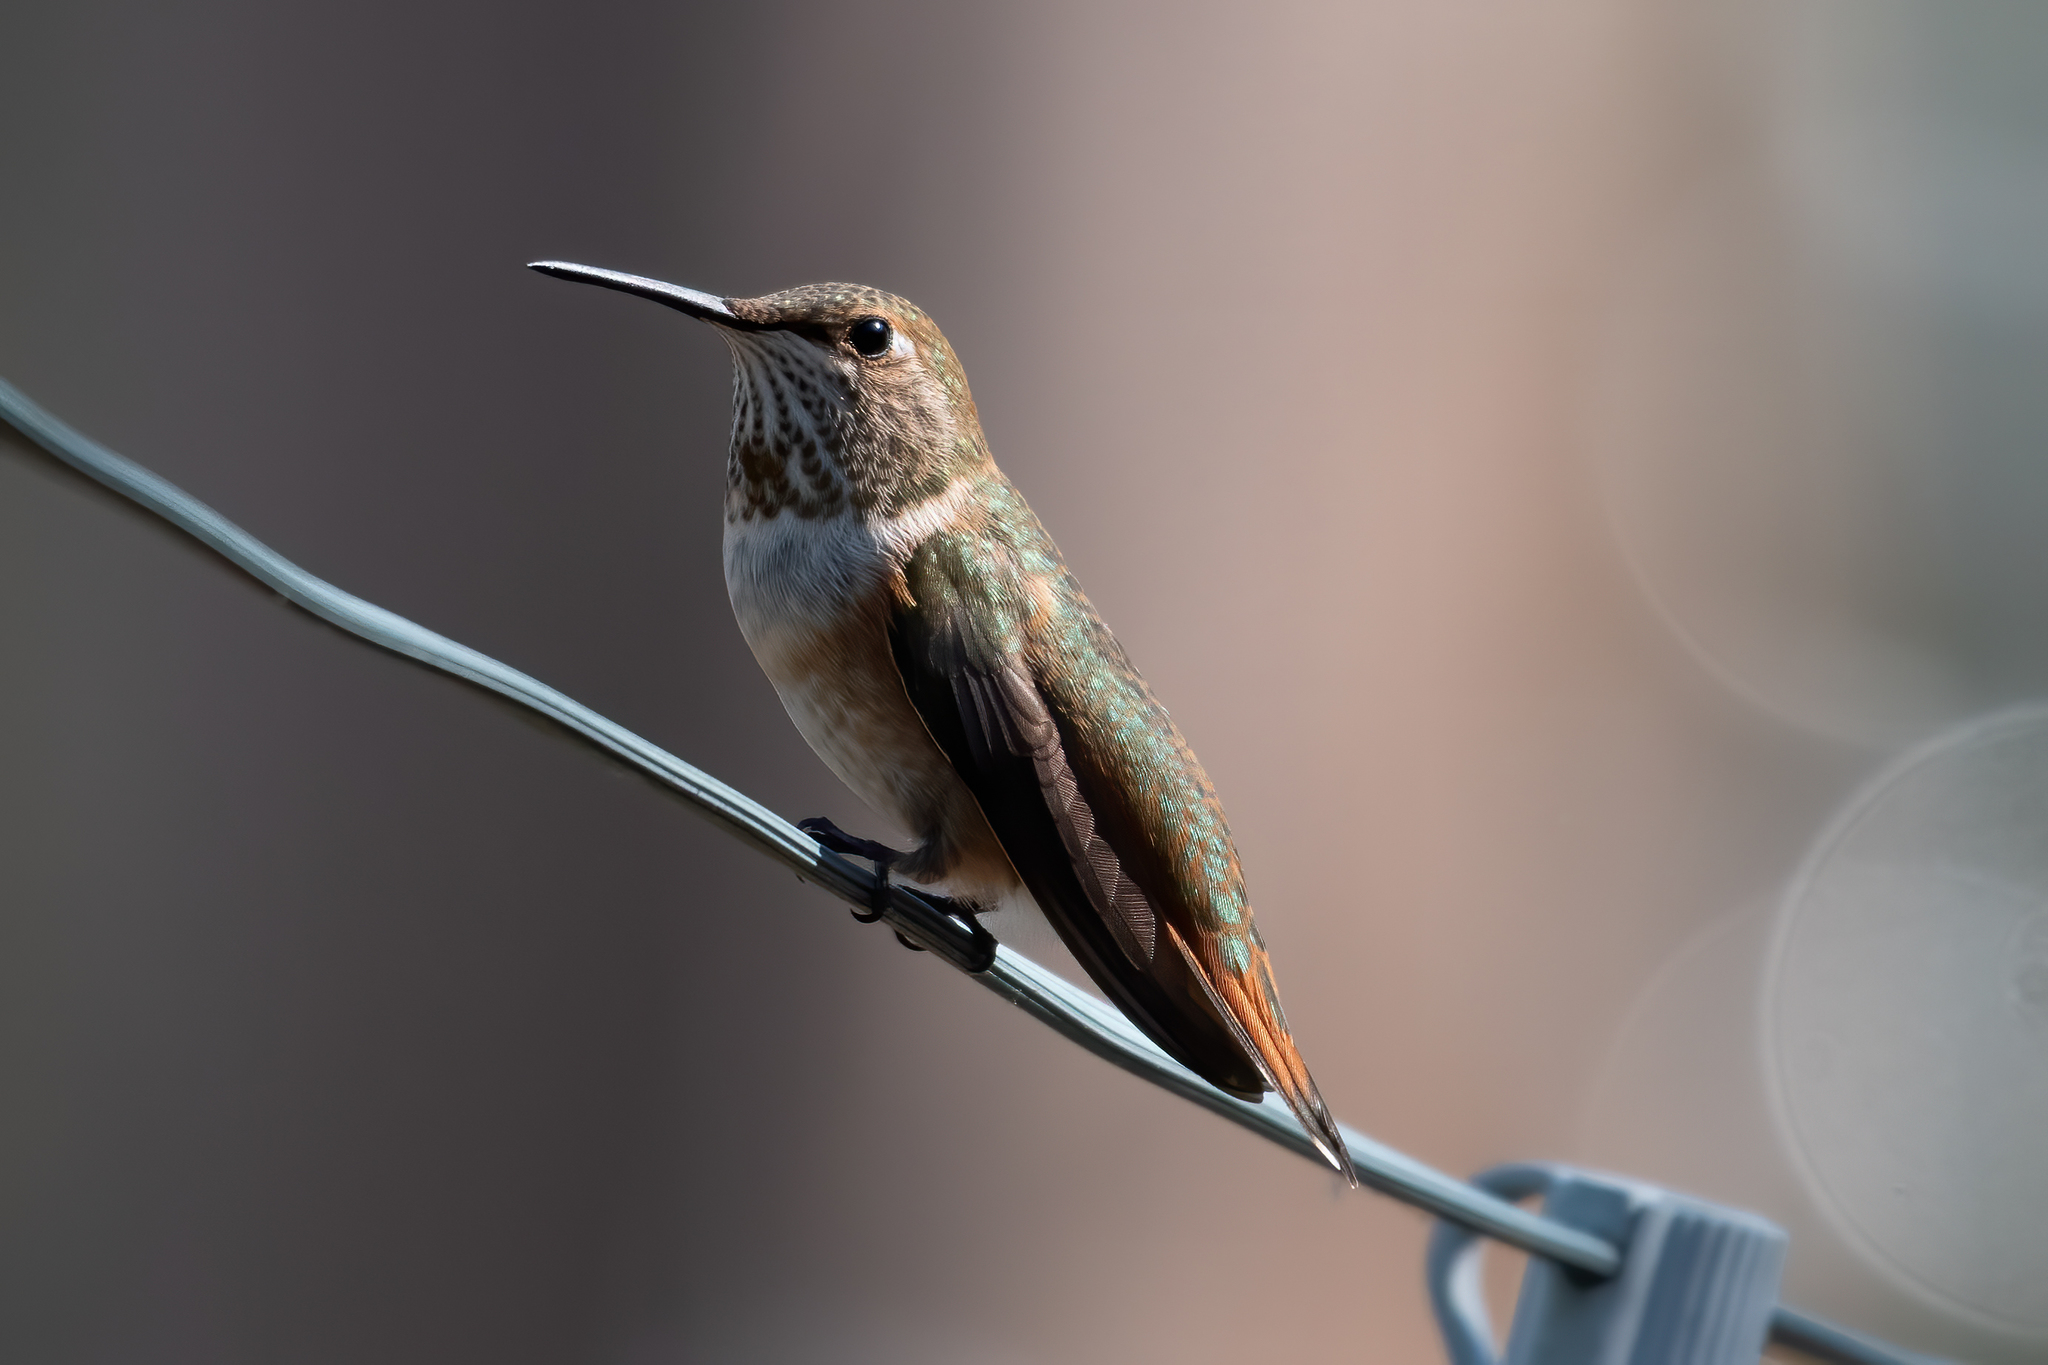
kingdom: Animalia
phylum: Chordata
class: Aves
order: Apodiformes
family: Trochilidae
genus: Selasphorus
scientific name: Selasphorus rufus
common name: Rufous hummingbird
